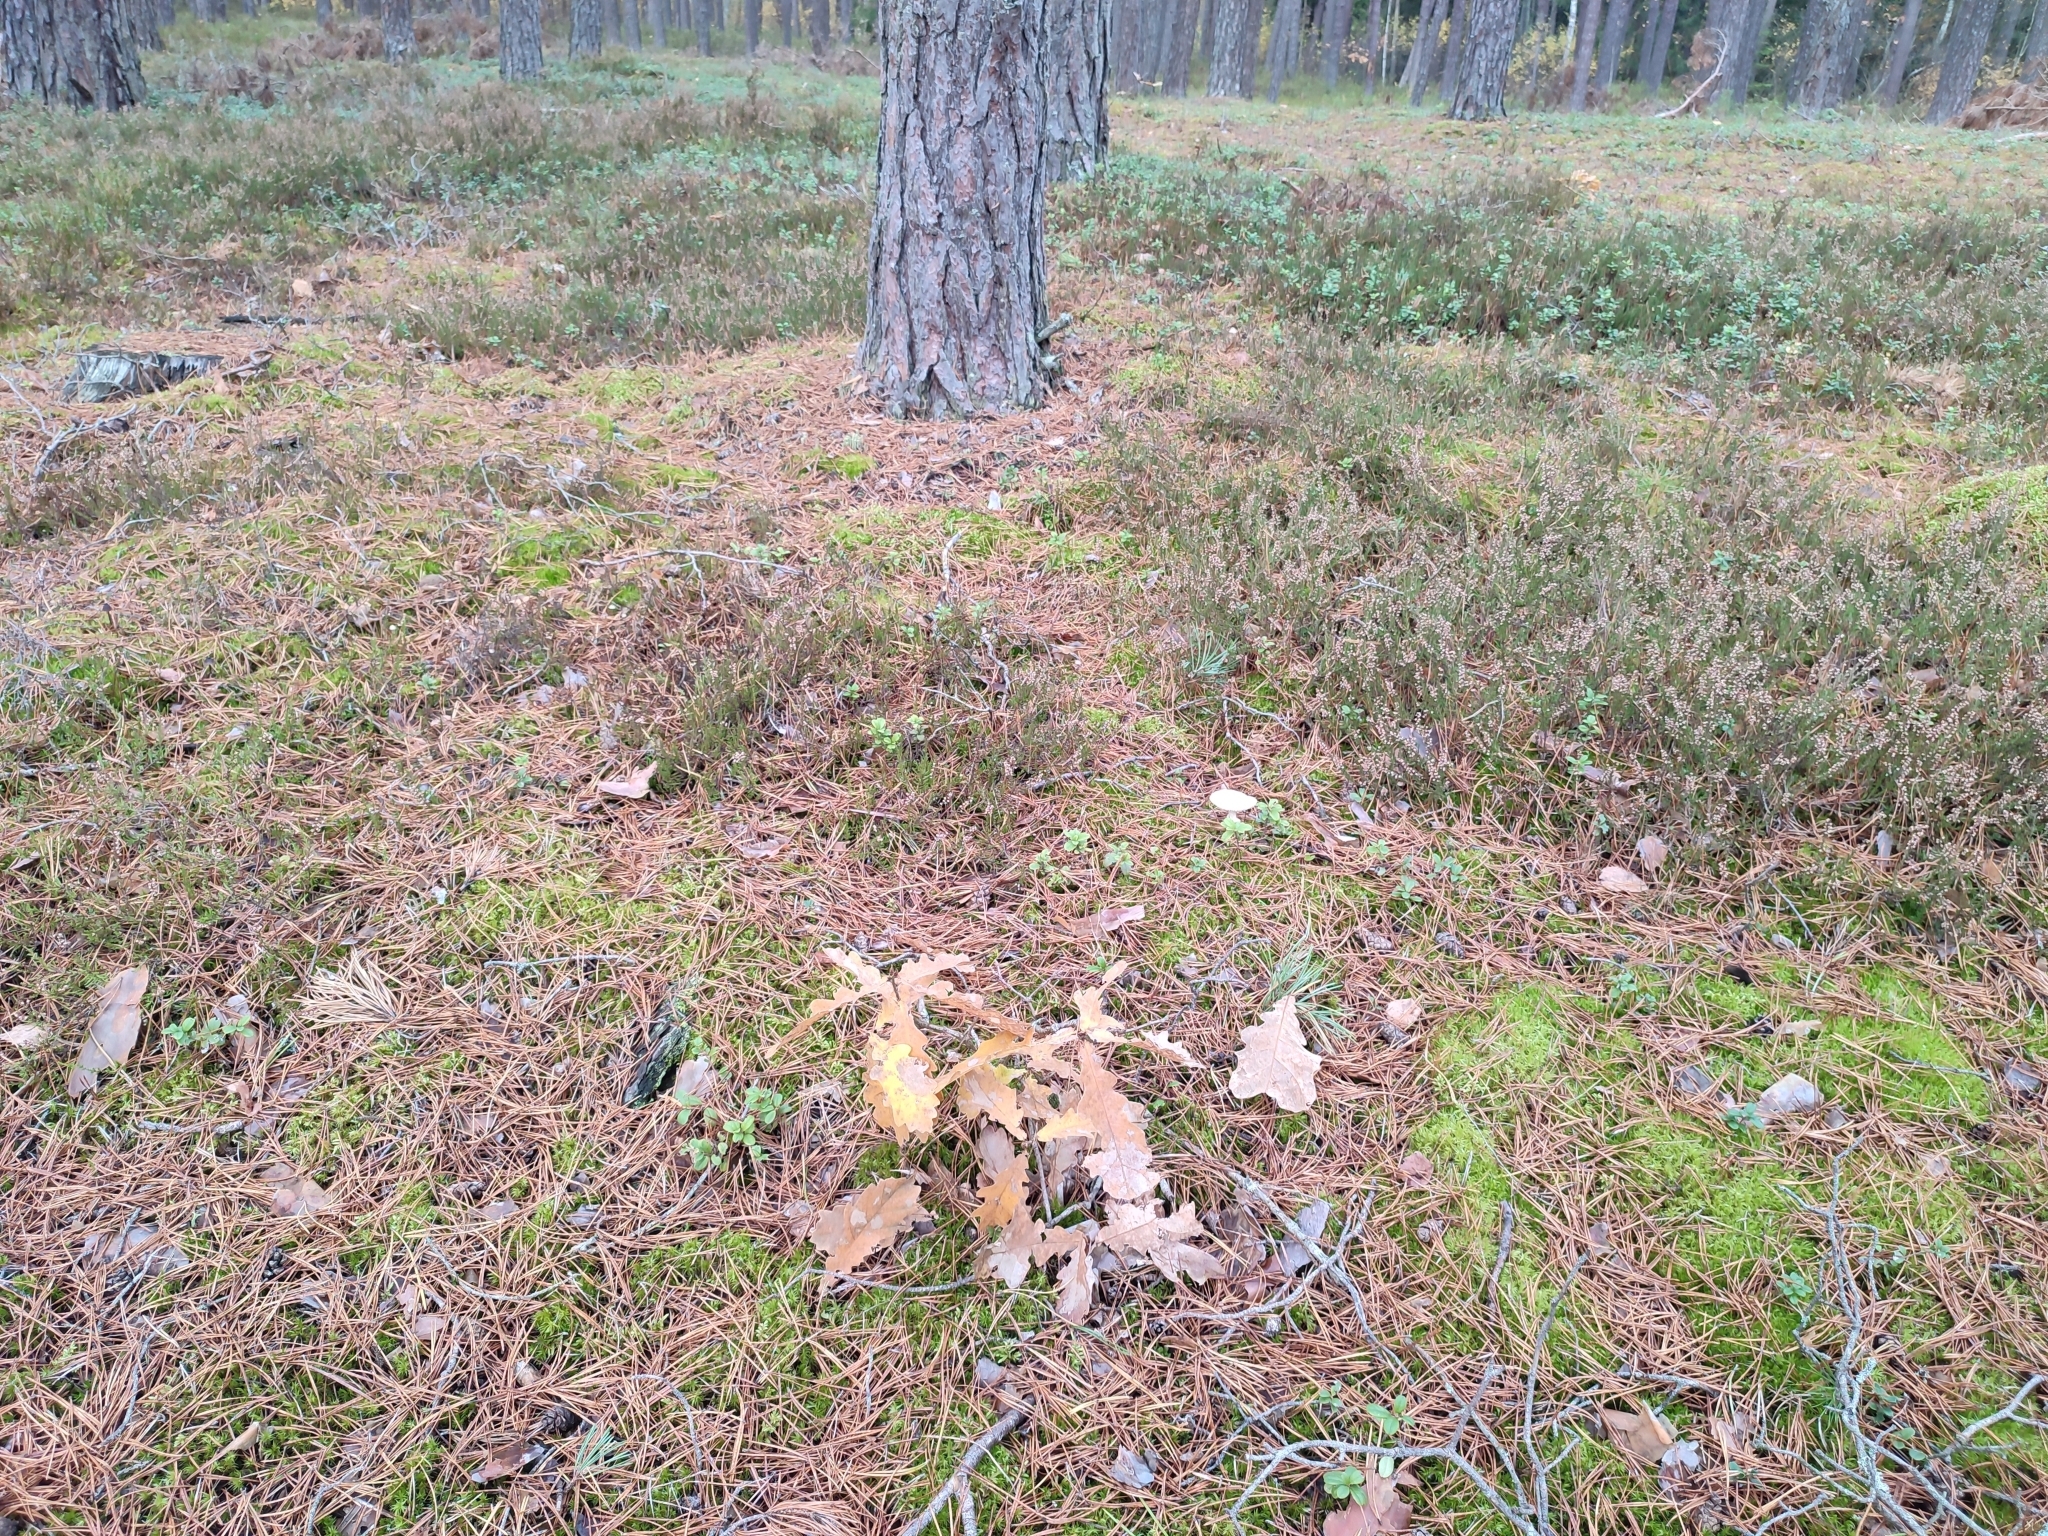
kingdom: Plantae
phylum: Tracheophyta
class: Magnoliopsida
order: Fagales
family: Fagaceae
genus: Quercus
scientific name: Quercus robur
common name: Pedunculate oak
